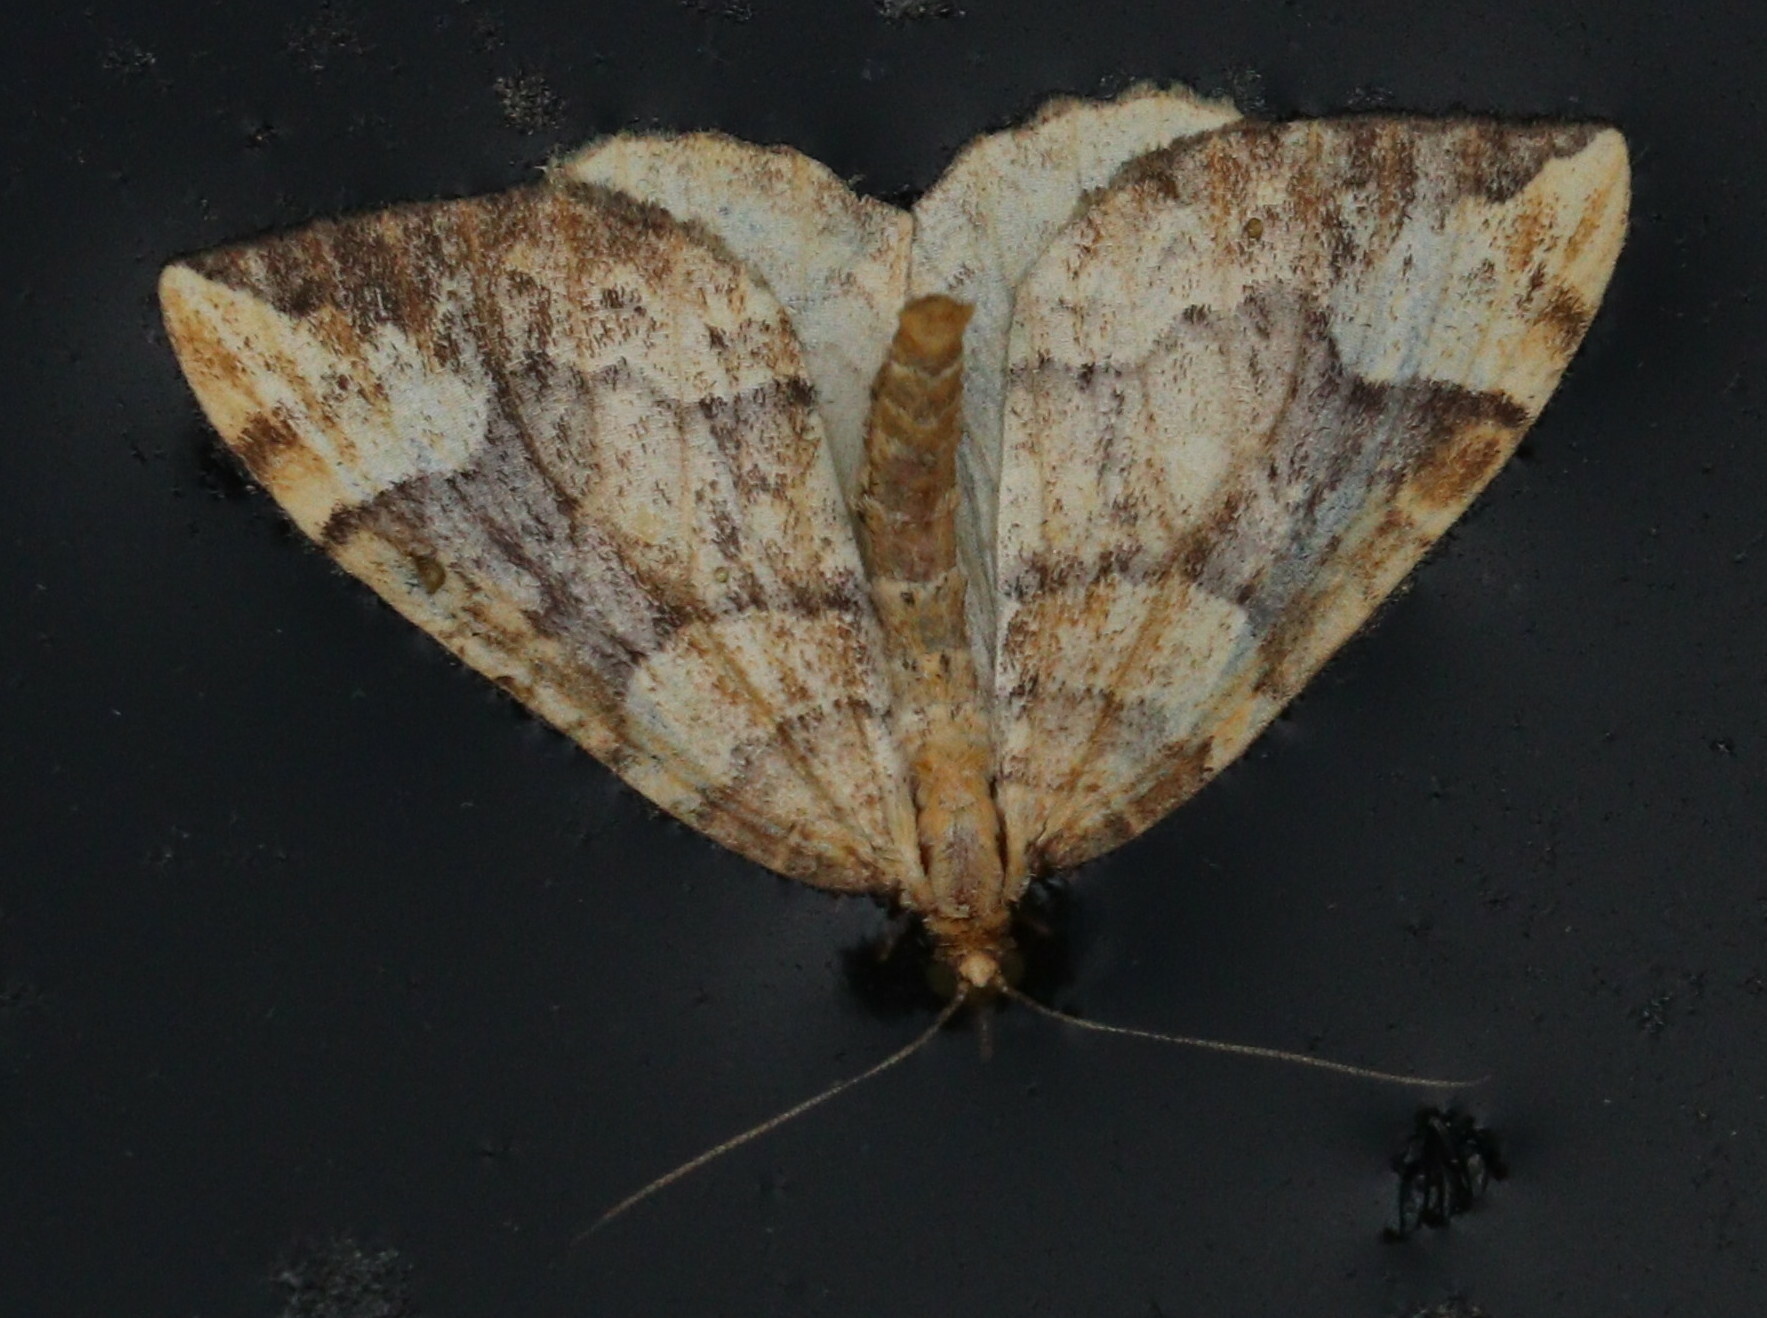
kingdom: Animalia
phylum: Arthropoda
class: Insecta
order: Lepidoptera
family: Geometridae
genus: Eulithis
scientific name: Eulithis populata
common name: Northern spinach
